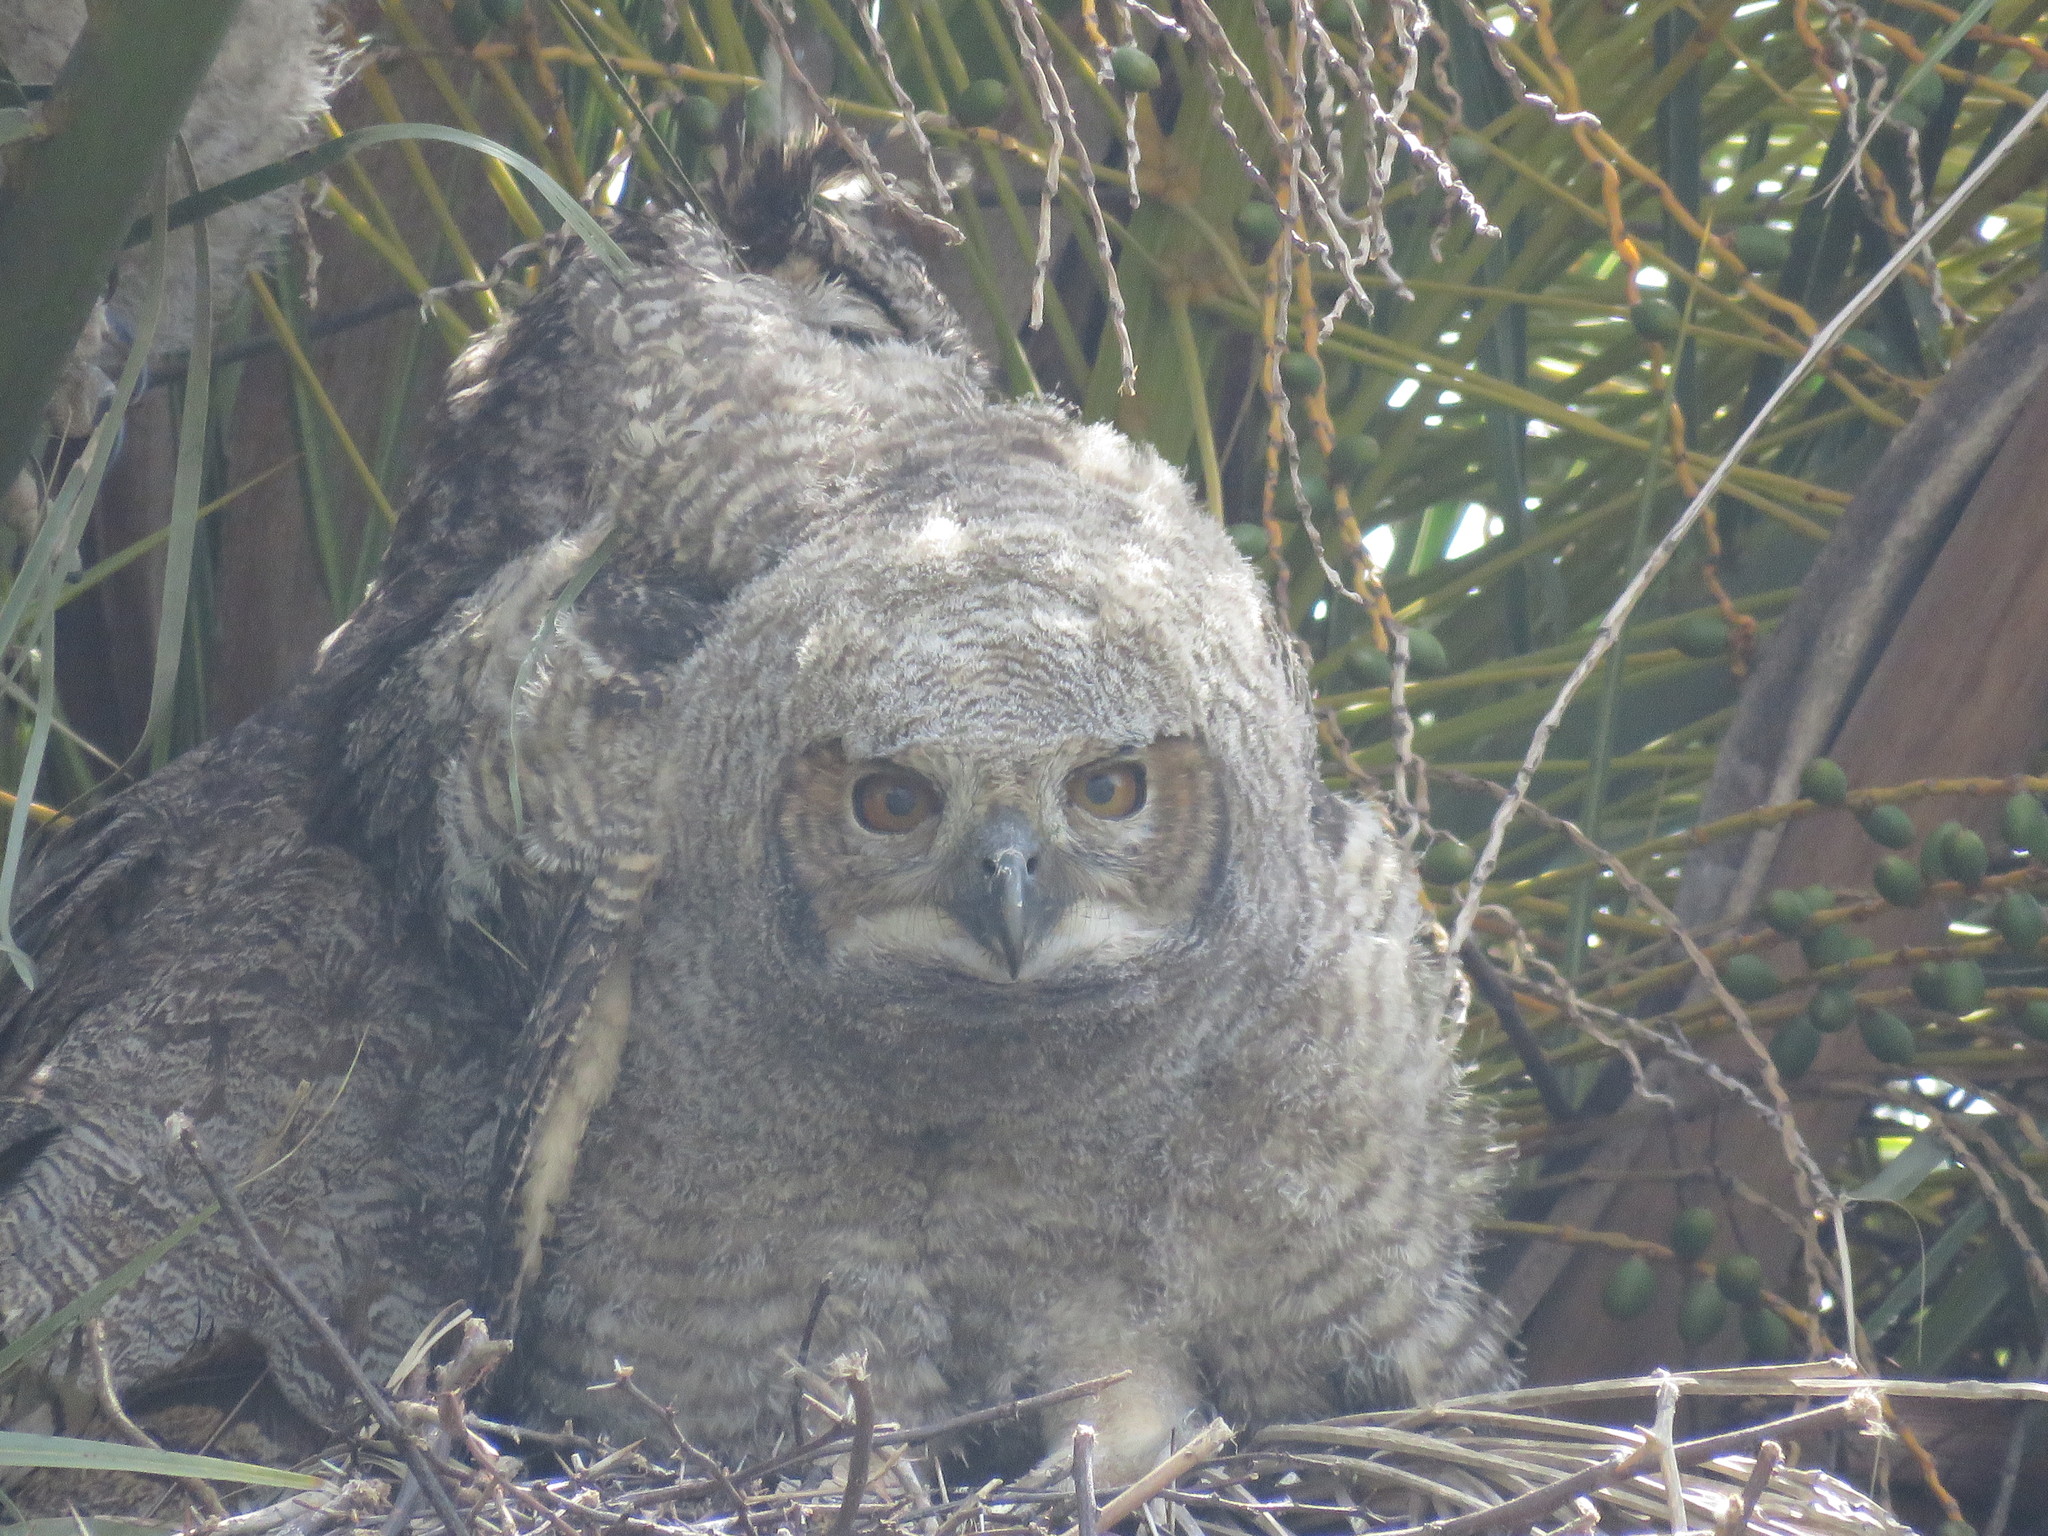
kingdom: Animalia
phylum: Chordata
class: Aves
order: Strigiformes
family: Strigidae
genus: Bubo
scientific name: Bubo virginianus
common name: Great horned owl
